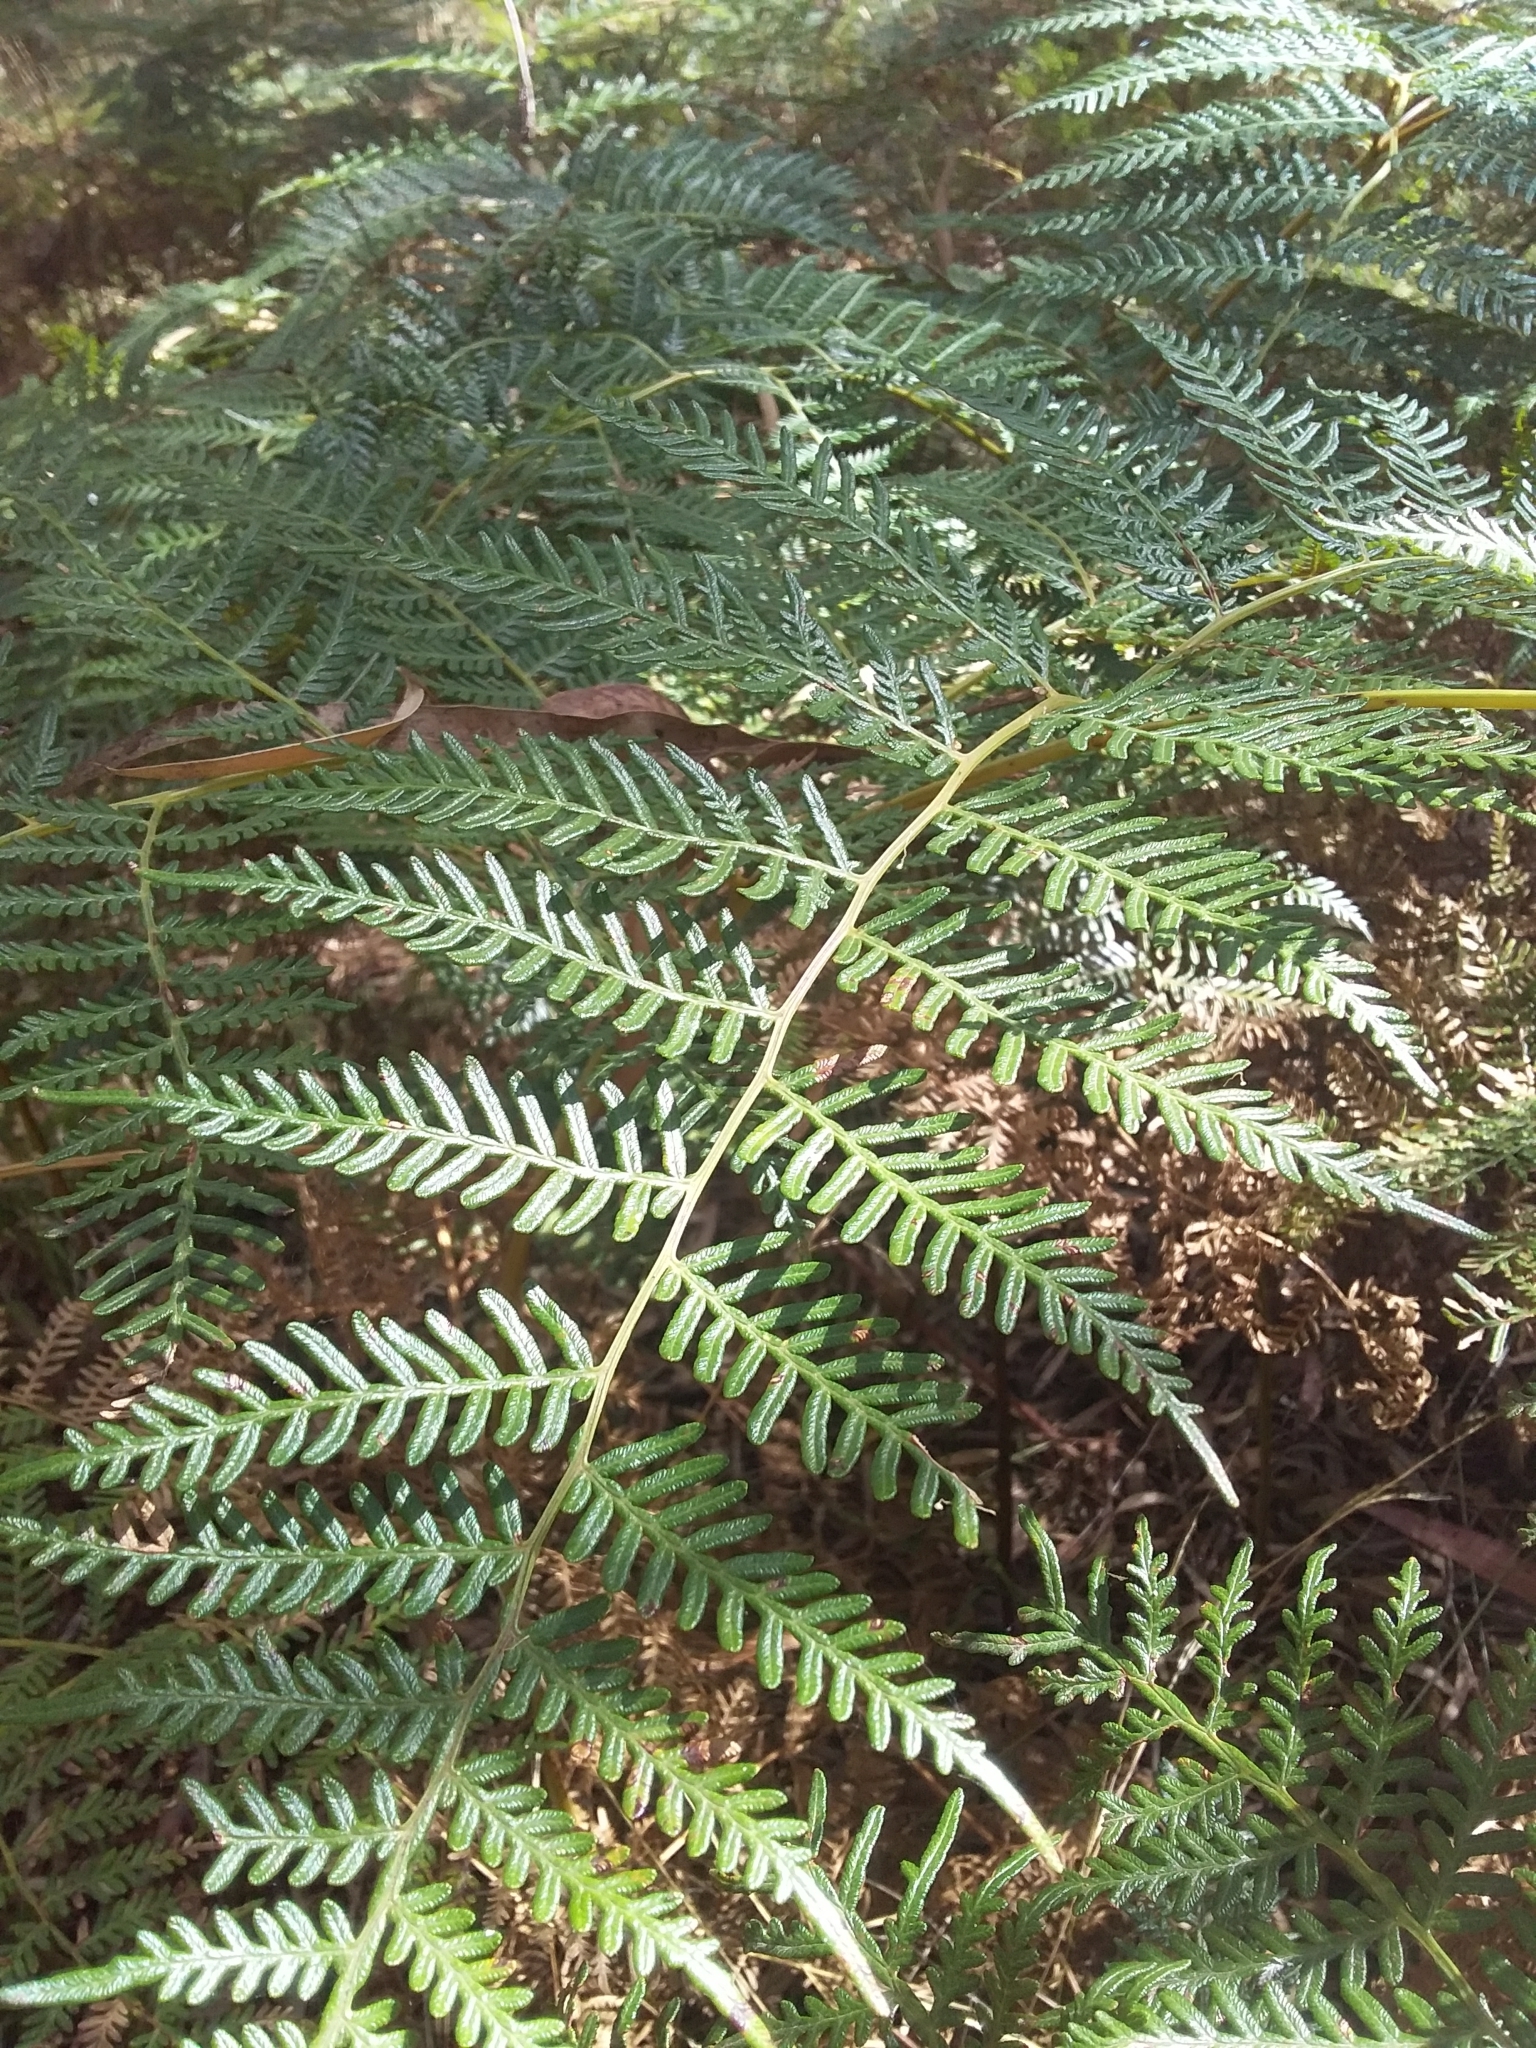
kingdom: Plantae
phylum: Tracheophyta
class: Polypodiopsida
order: Polypodiales
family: Dennstaedtiaceae
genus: Pteridium
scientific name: Pteridium esculentum
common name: Bracken fern
